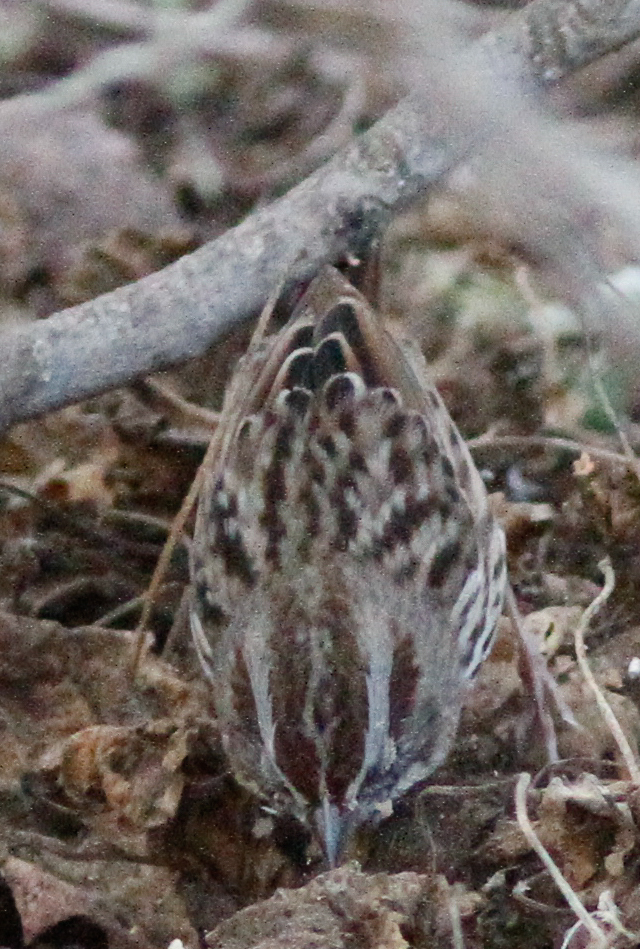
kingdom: Animalia
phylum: Chordata
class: Aves
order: Passeriformes
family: Passerellidae
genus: Melospiza
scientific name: Melospiza melodia
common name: Song sparrow
